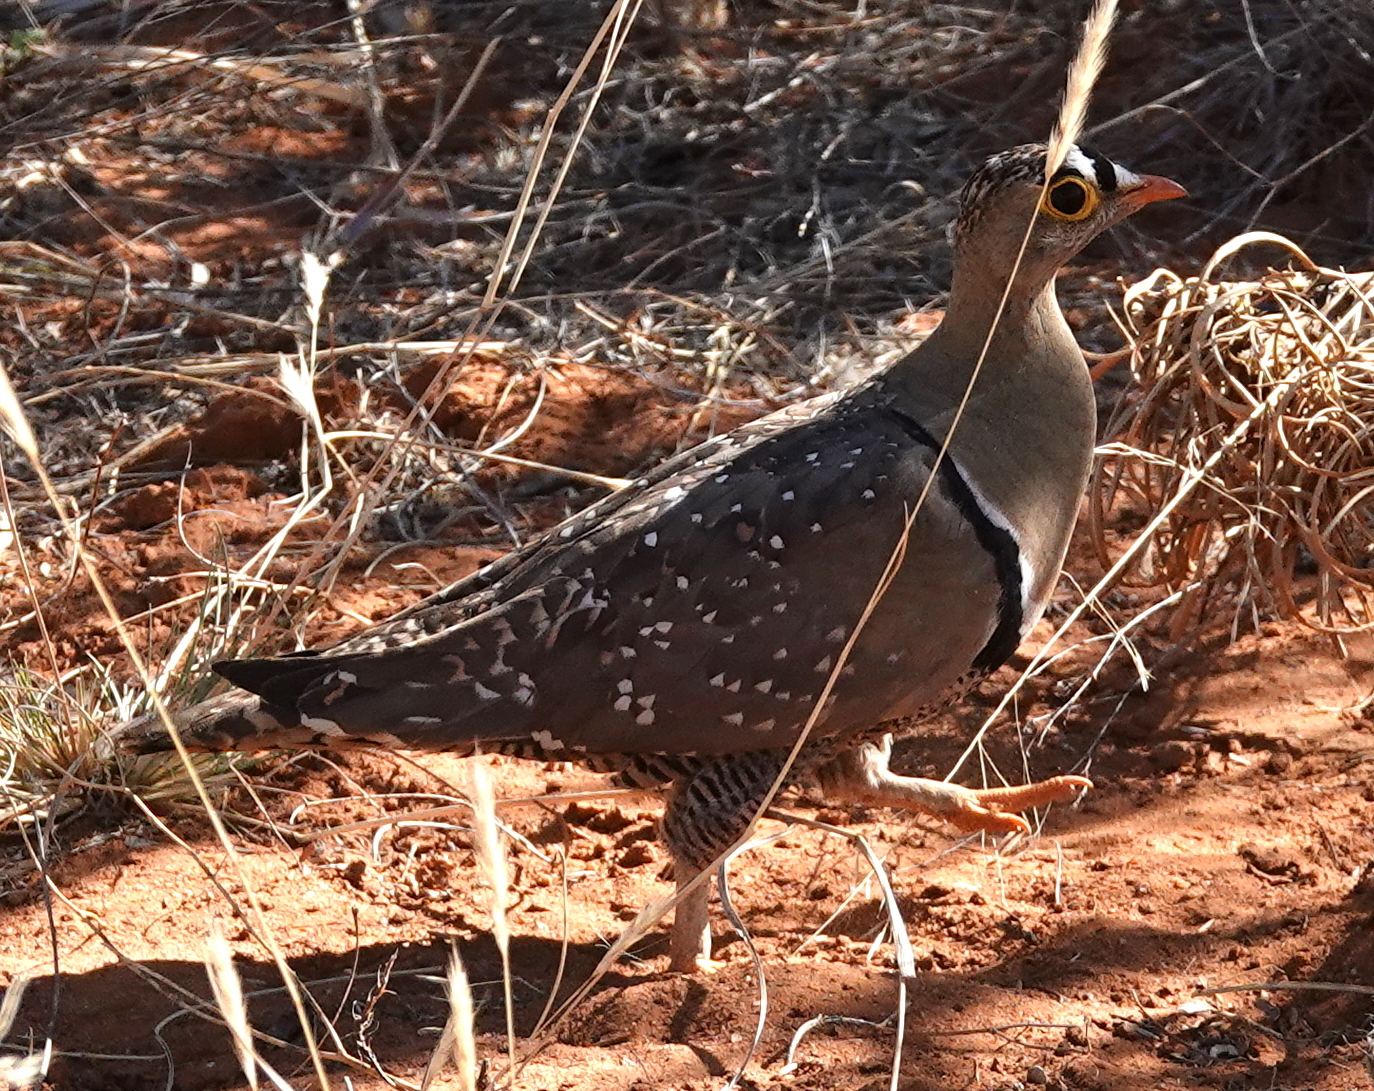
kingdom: Animalia
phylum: Chordata
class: Aves
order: Pteroclidiformes
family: Pteroclididae
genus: Pterocles
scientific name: Pterocles bicinctus
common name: Double-banded sandgrouse
